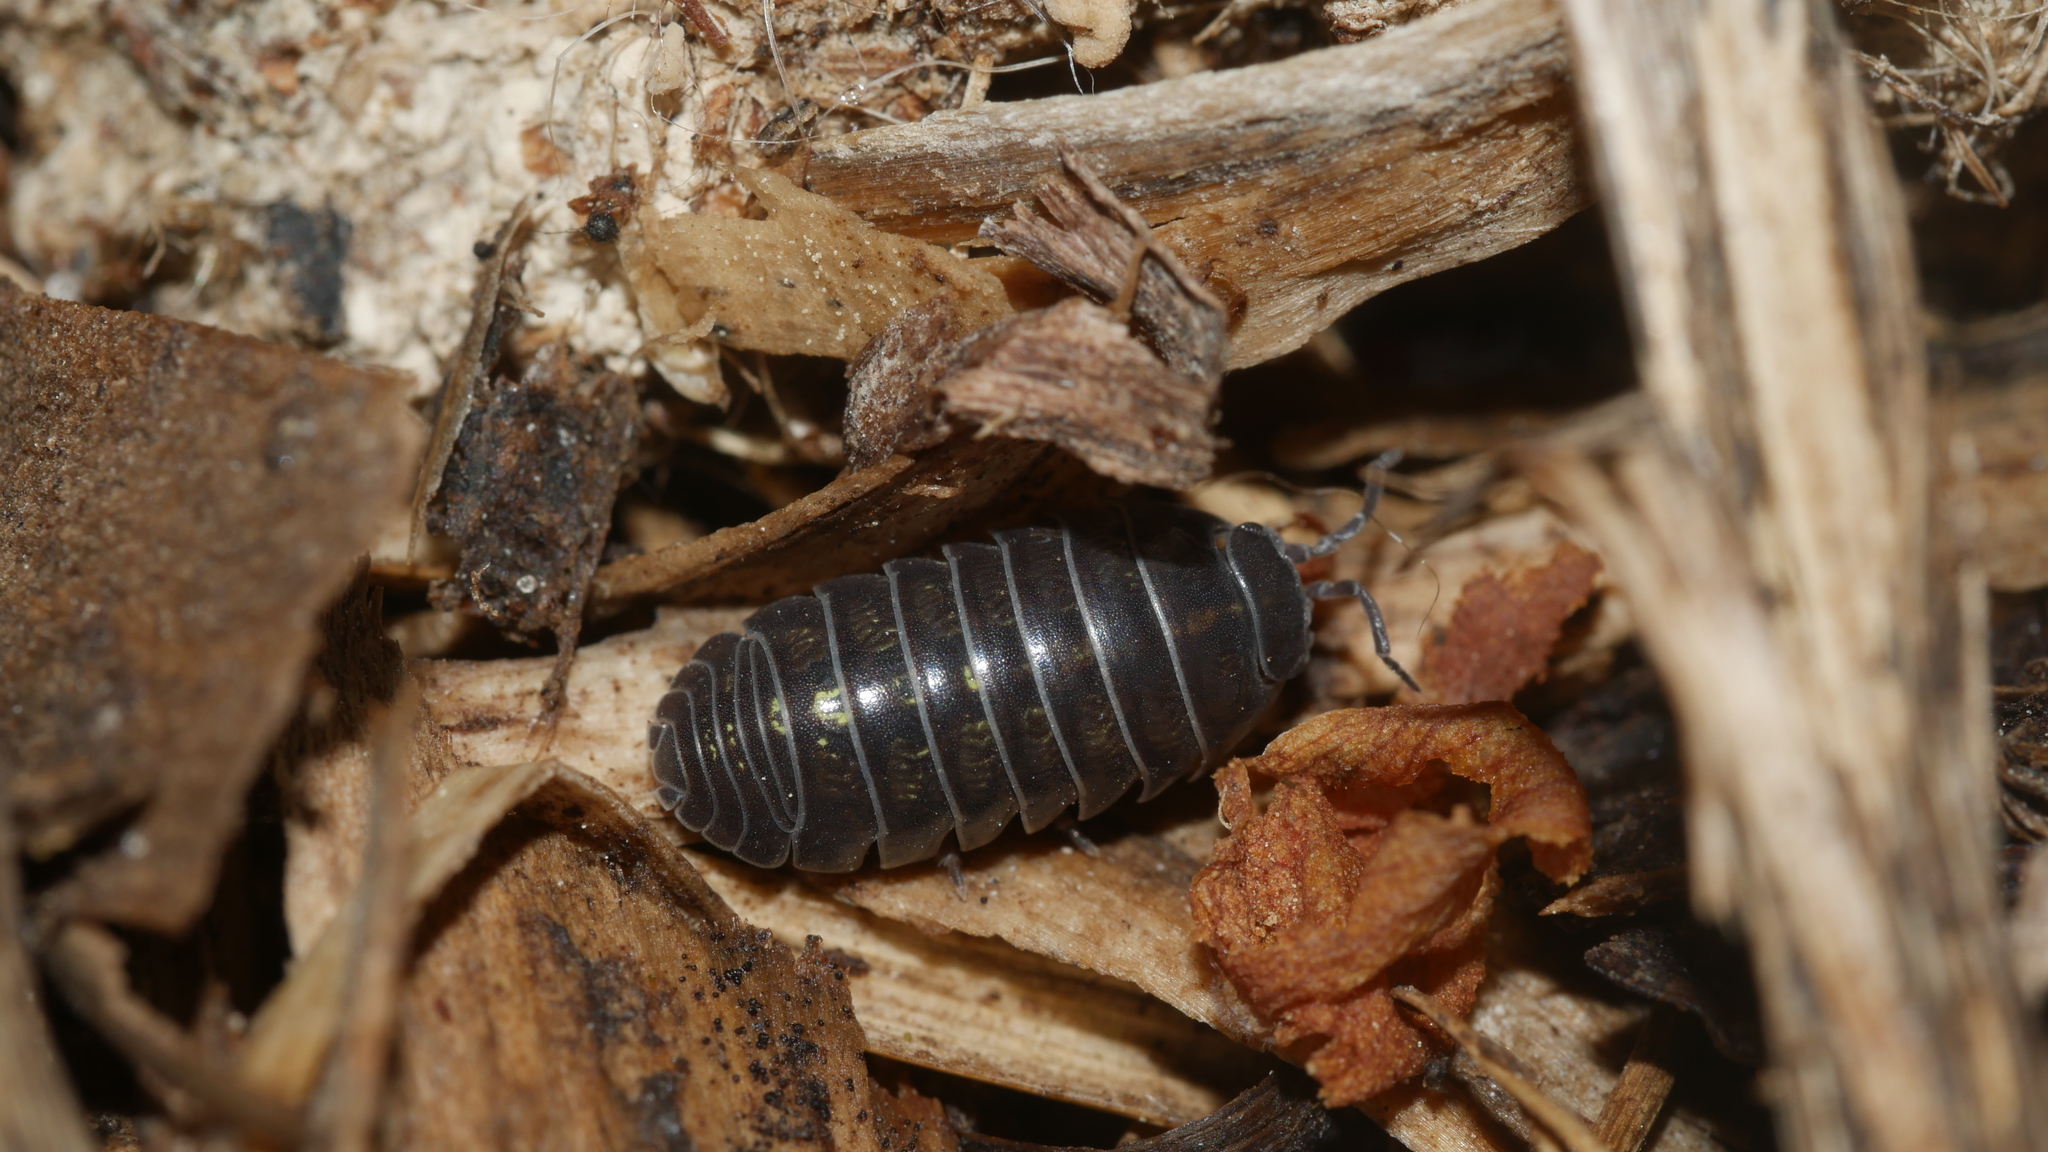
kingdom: Animalia
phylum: Arthropoda
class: Malacostraca
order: Isopoda
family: Armadillidiidae
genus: Armadillidium
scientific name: Armadillidium vulgare
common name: Common pill woodlouse
